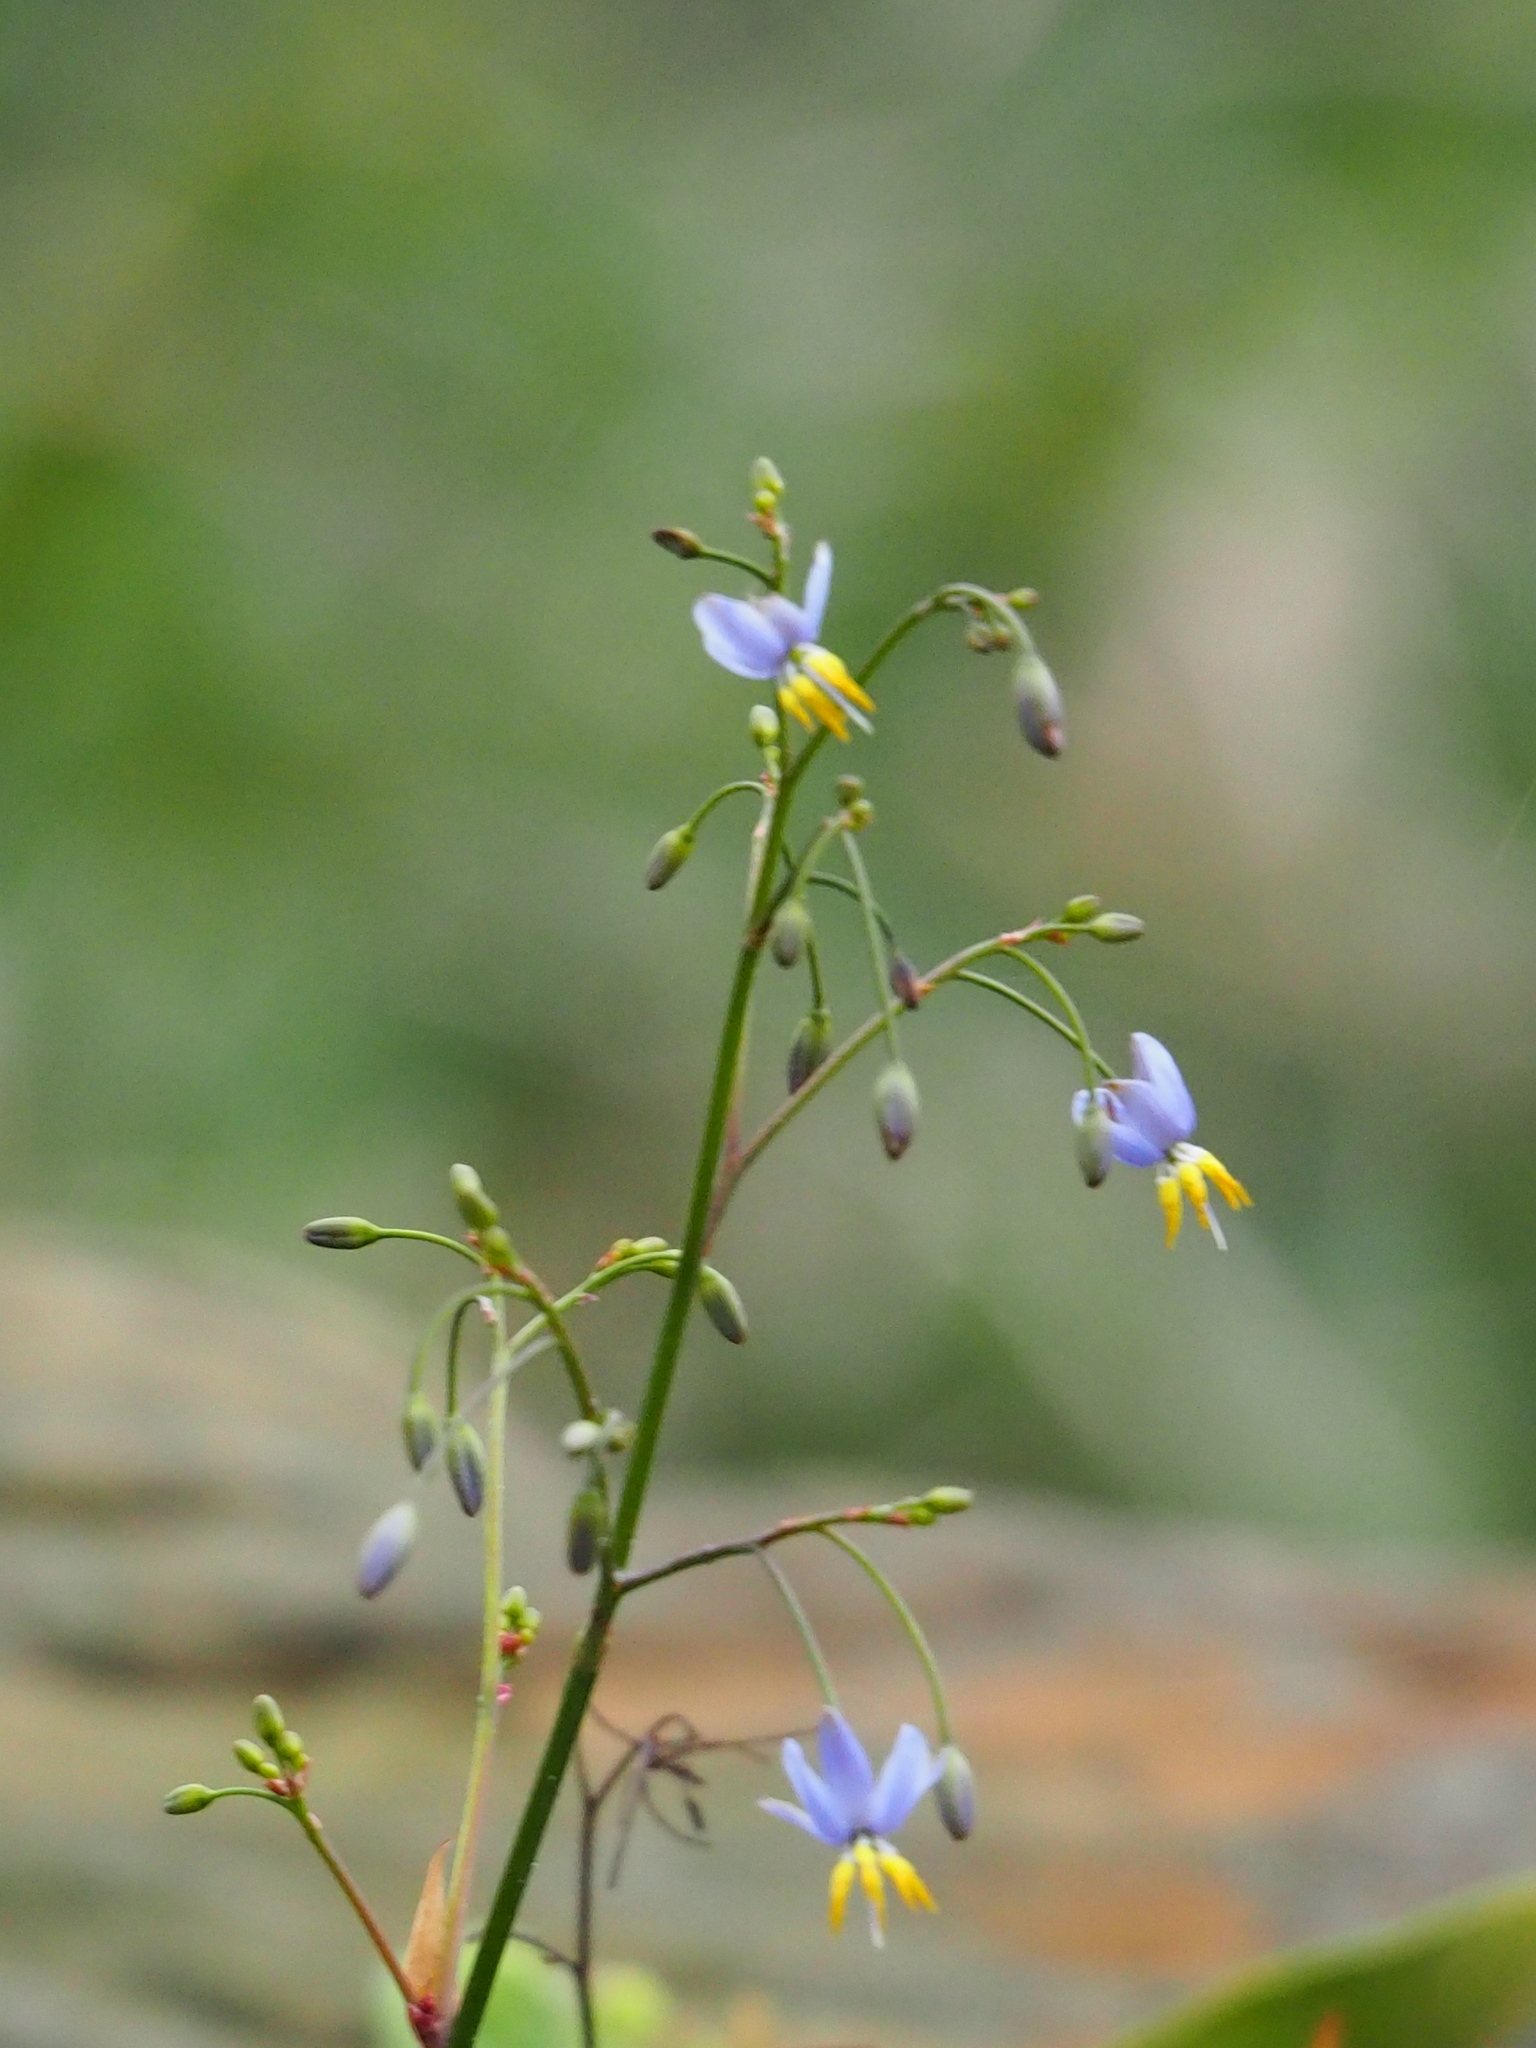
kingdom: Plantae
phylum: Tracheophyta
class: Liliopsida
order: Asparagales
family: Asphodelaceae
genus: Dianella
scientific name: Dianella ensifolia
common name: New zealand lilyplant
